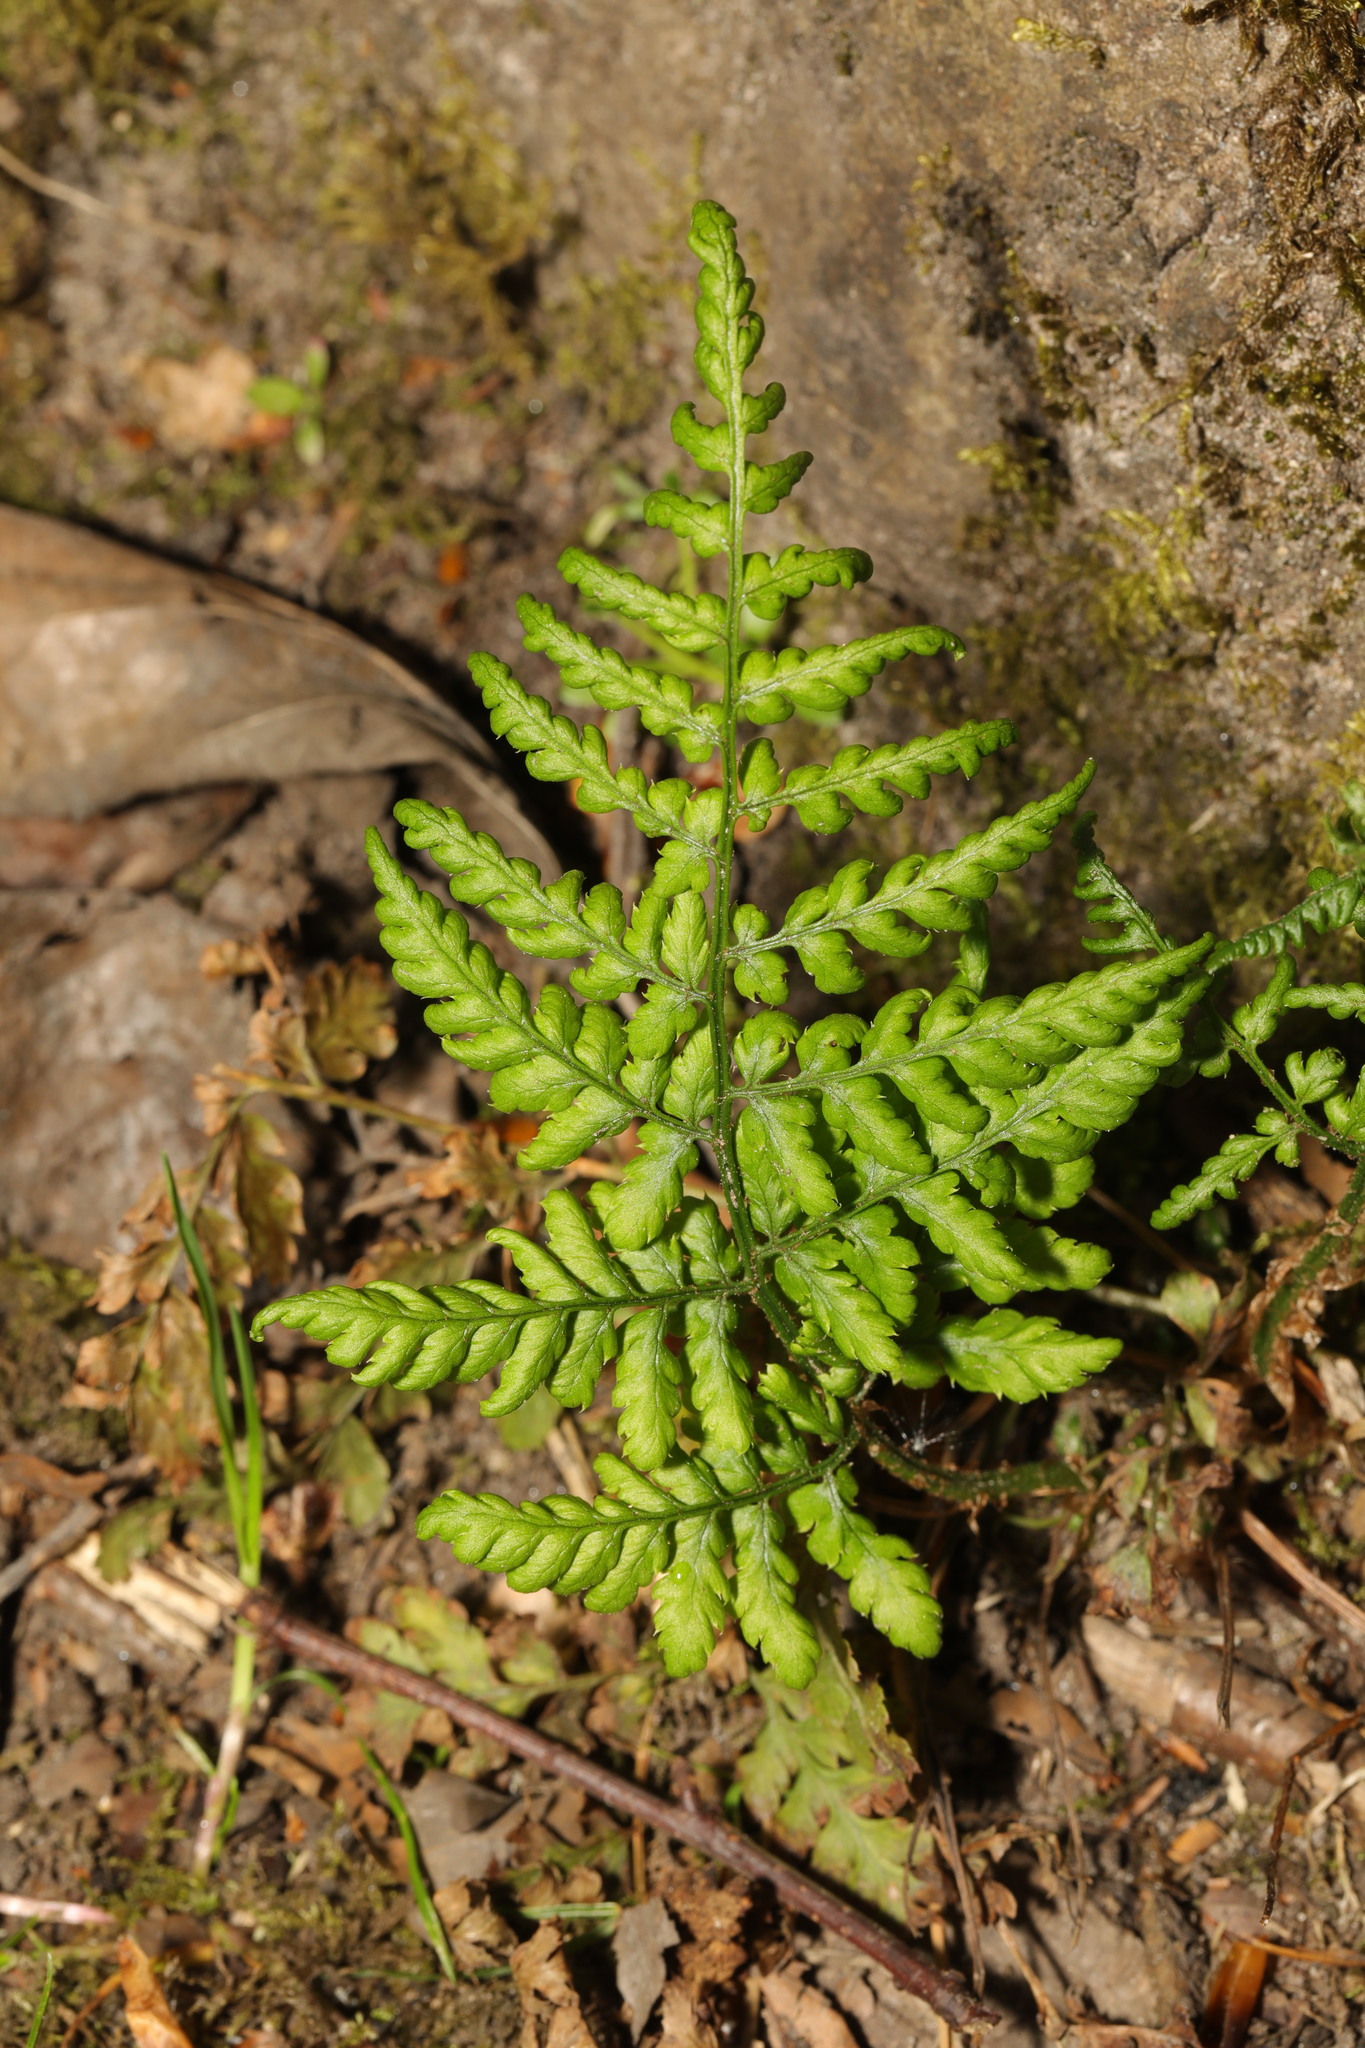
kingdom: Plantae
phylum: Tracheophyta
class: Polypodiopsida
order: Polypodiales
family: Dryopteridaceae
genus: Dryopteris
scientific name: Dryopteris dilatata
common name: Broad buckler-fern
